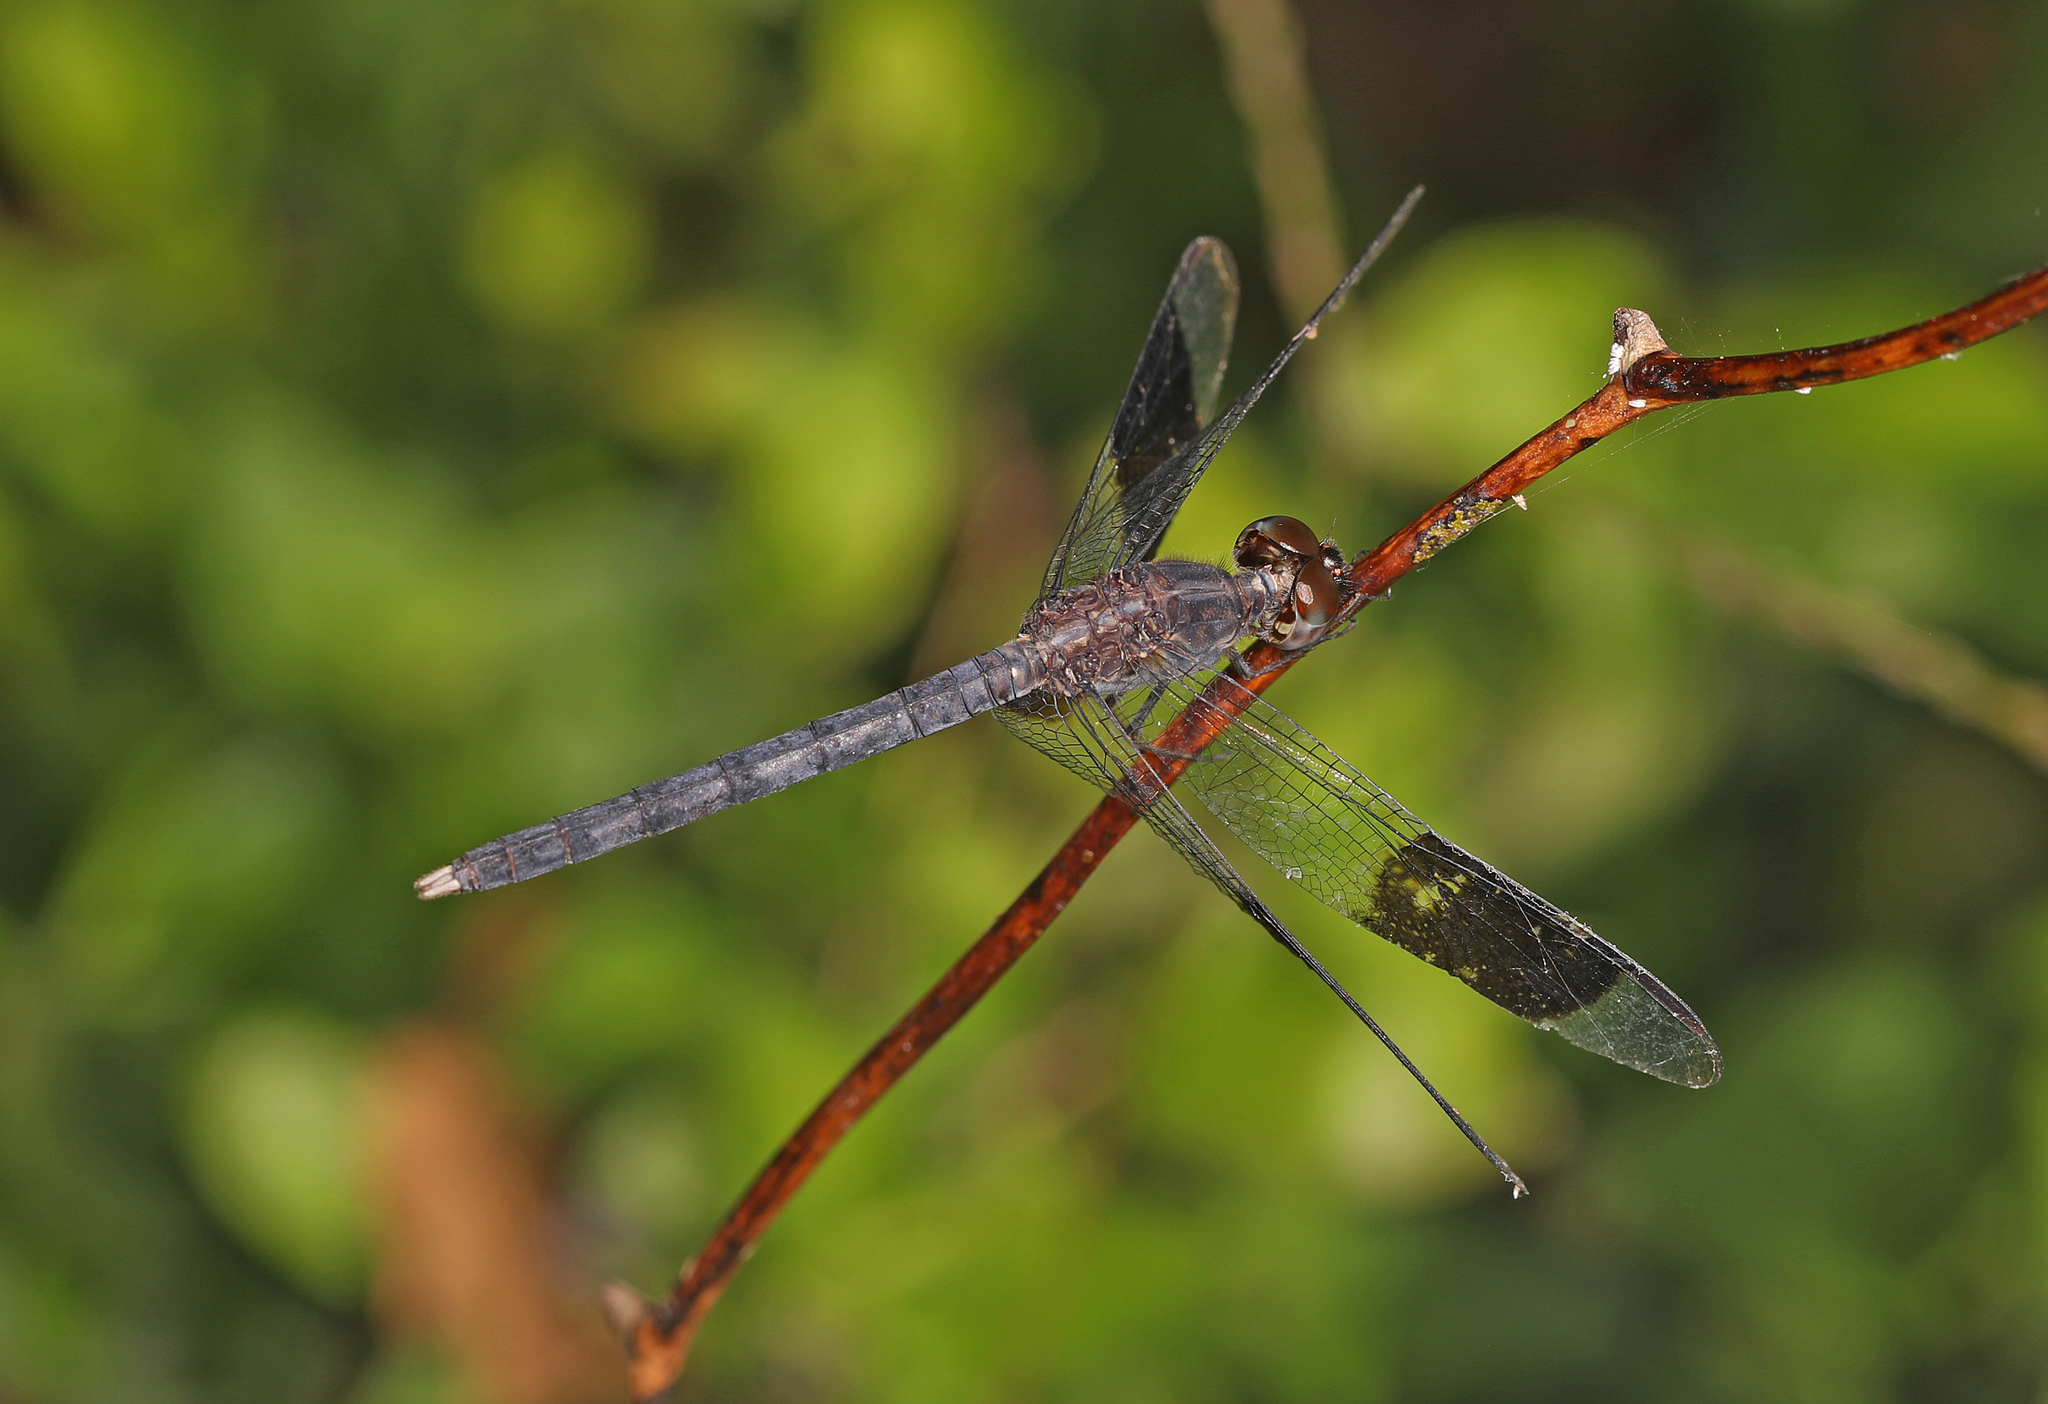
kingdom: Animalia
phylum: Arthropoda
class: Insecta
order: Odonata
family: Libellulidae
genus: Erythrodiplax
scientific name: Erythrodiplax umbrata
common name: Band-winged dragonlet
